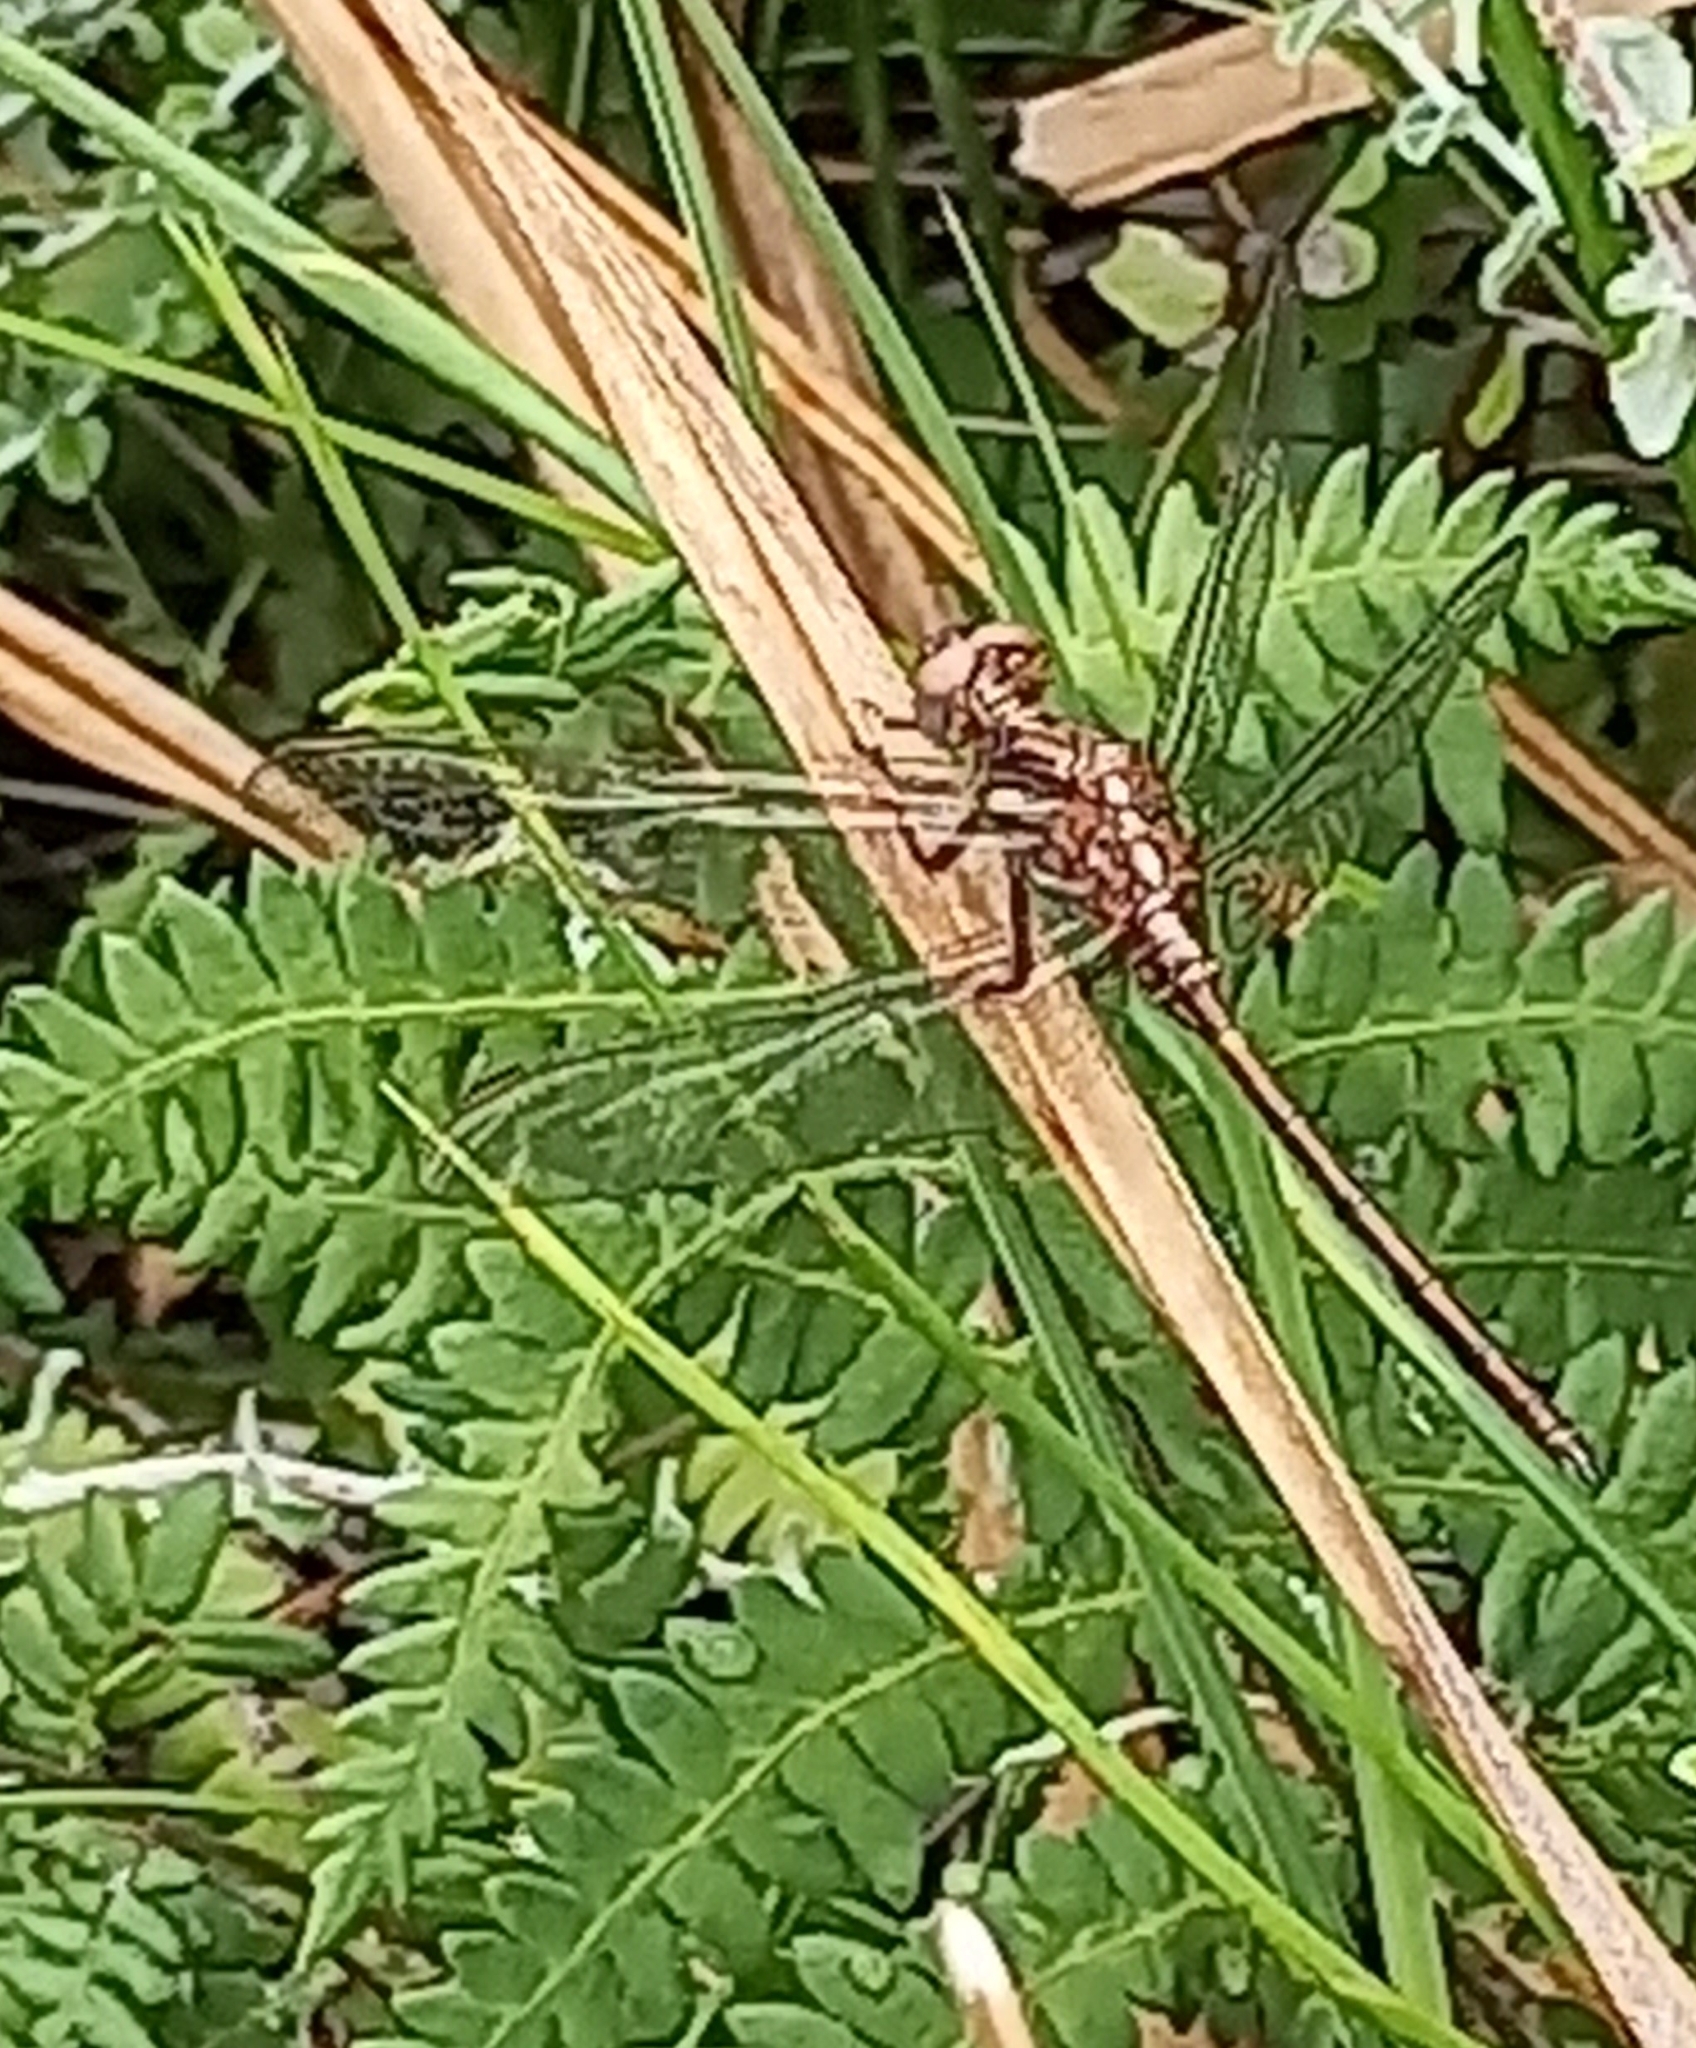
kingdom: Animalia
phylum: Arthropoda
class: Insecta
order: Odonata
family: Libellulidae
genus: Orthetrum
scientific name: Orthetrum julia
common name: Julia skimmer
